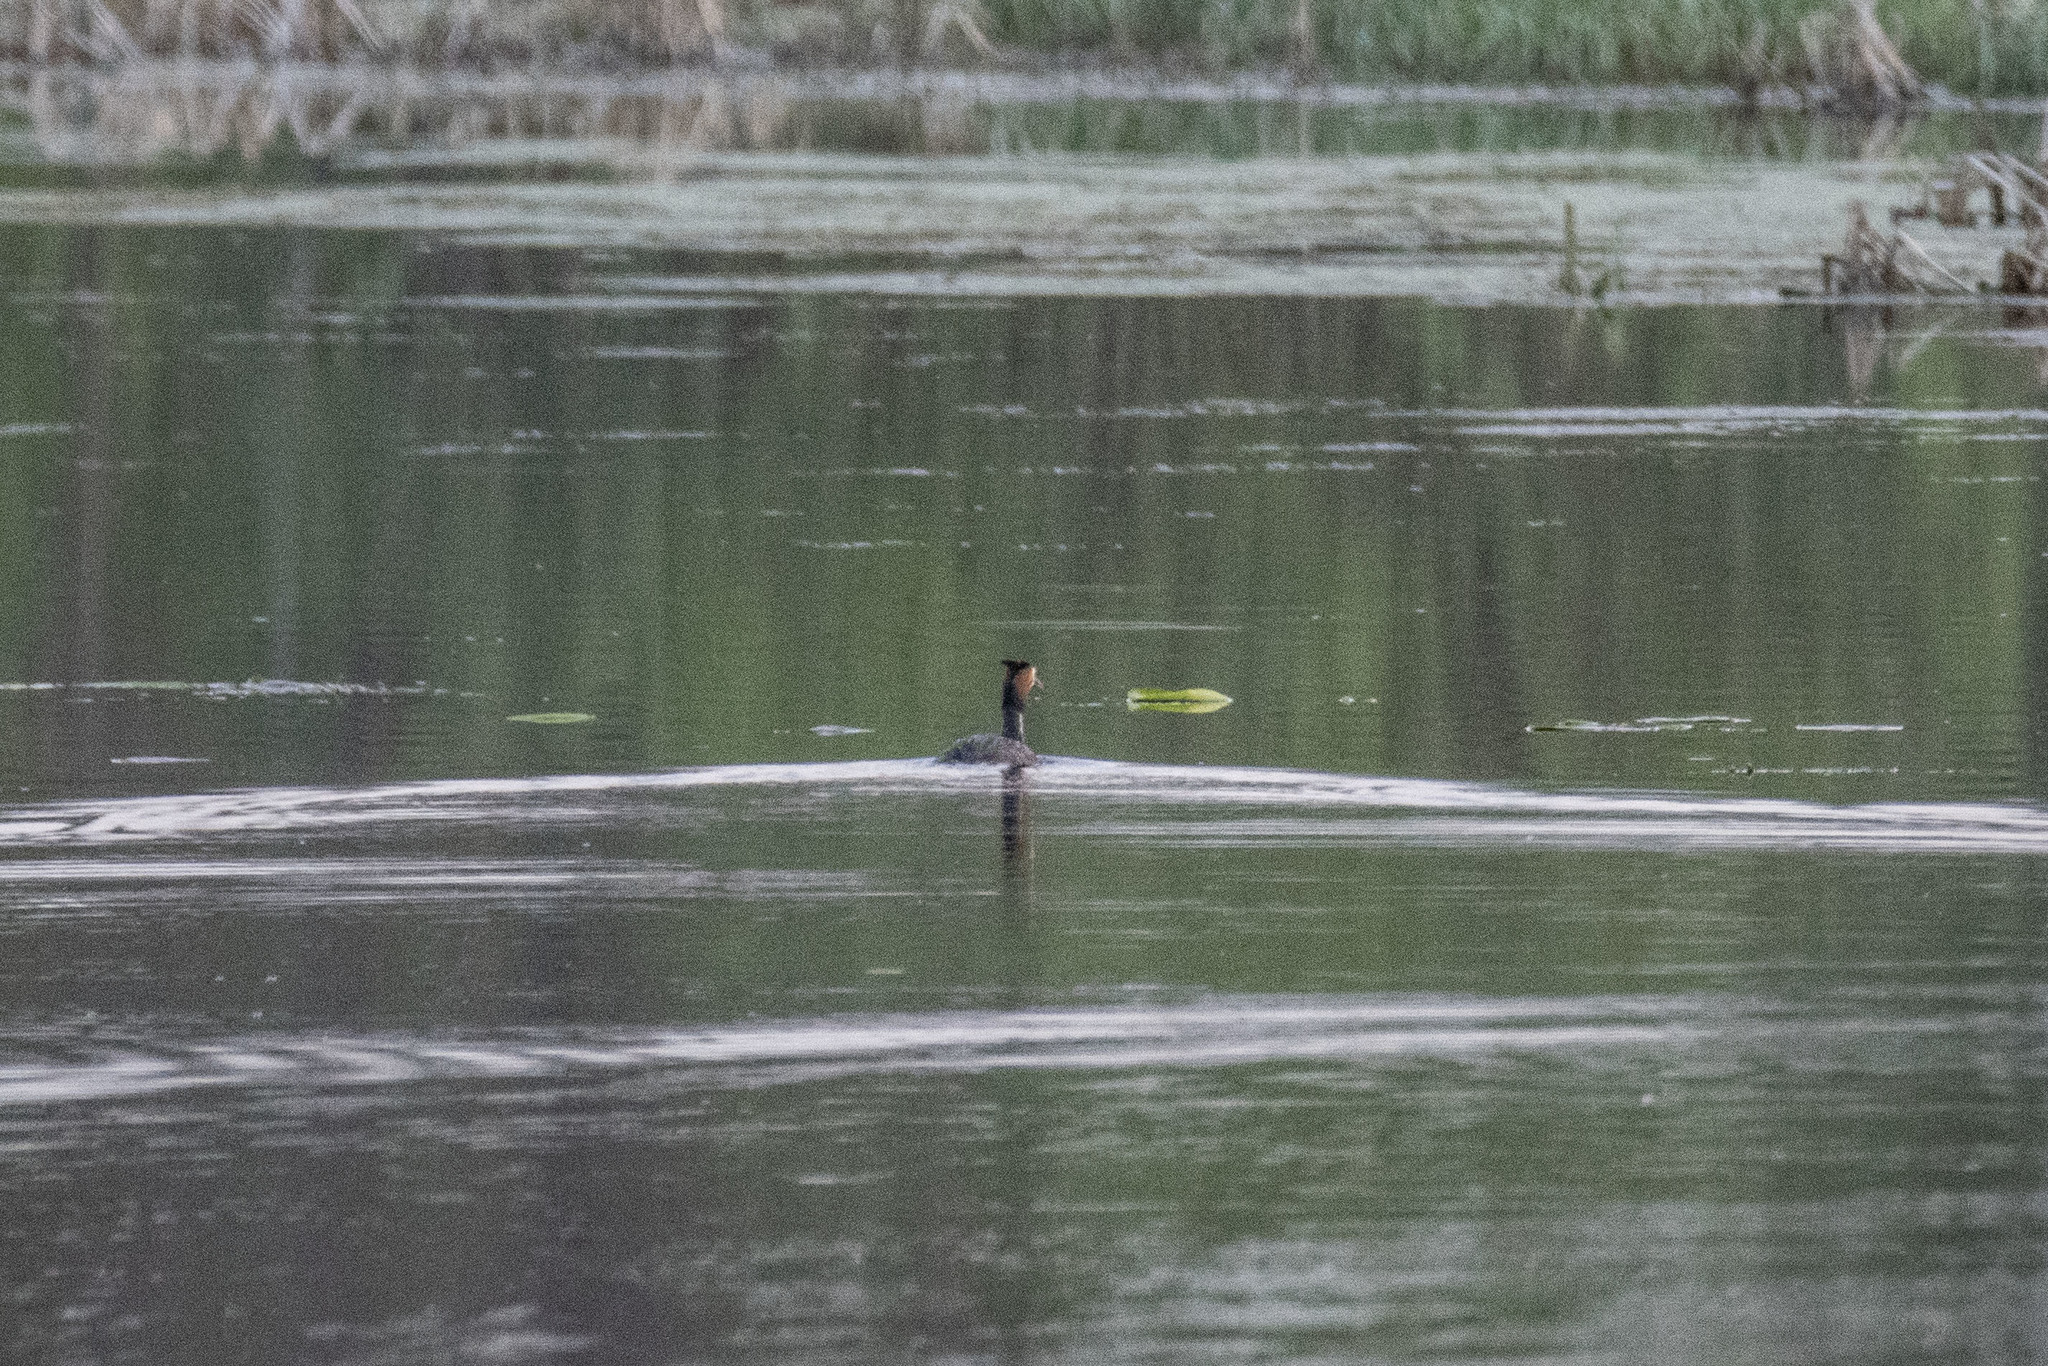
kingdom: Animalia
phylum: Chordata
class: Aves
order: Podicipediformes
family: Podicipedidae
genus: Podiceps
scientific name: Podiceps cristatus
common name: Great crested grebe
